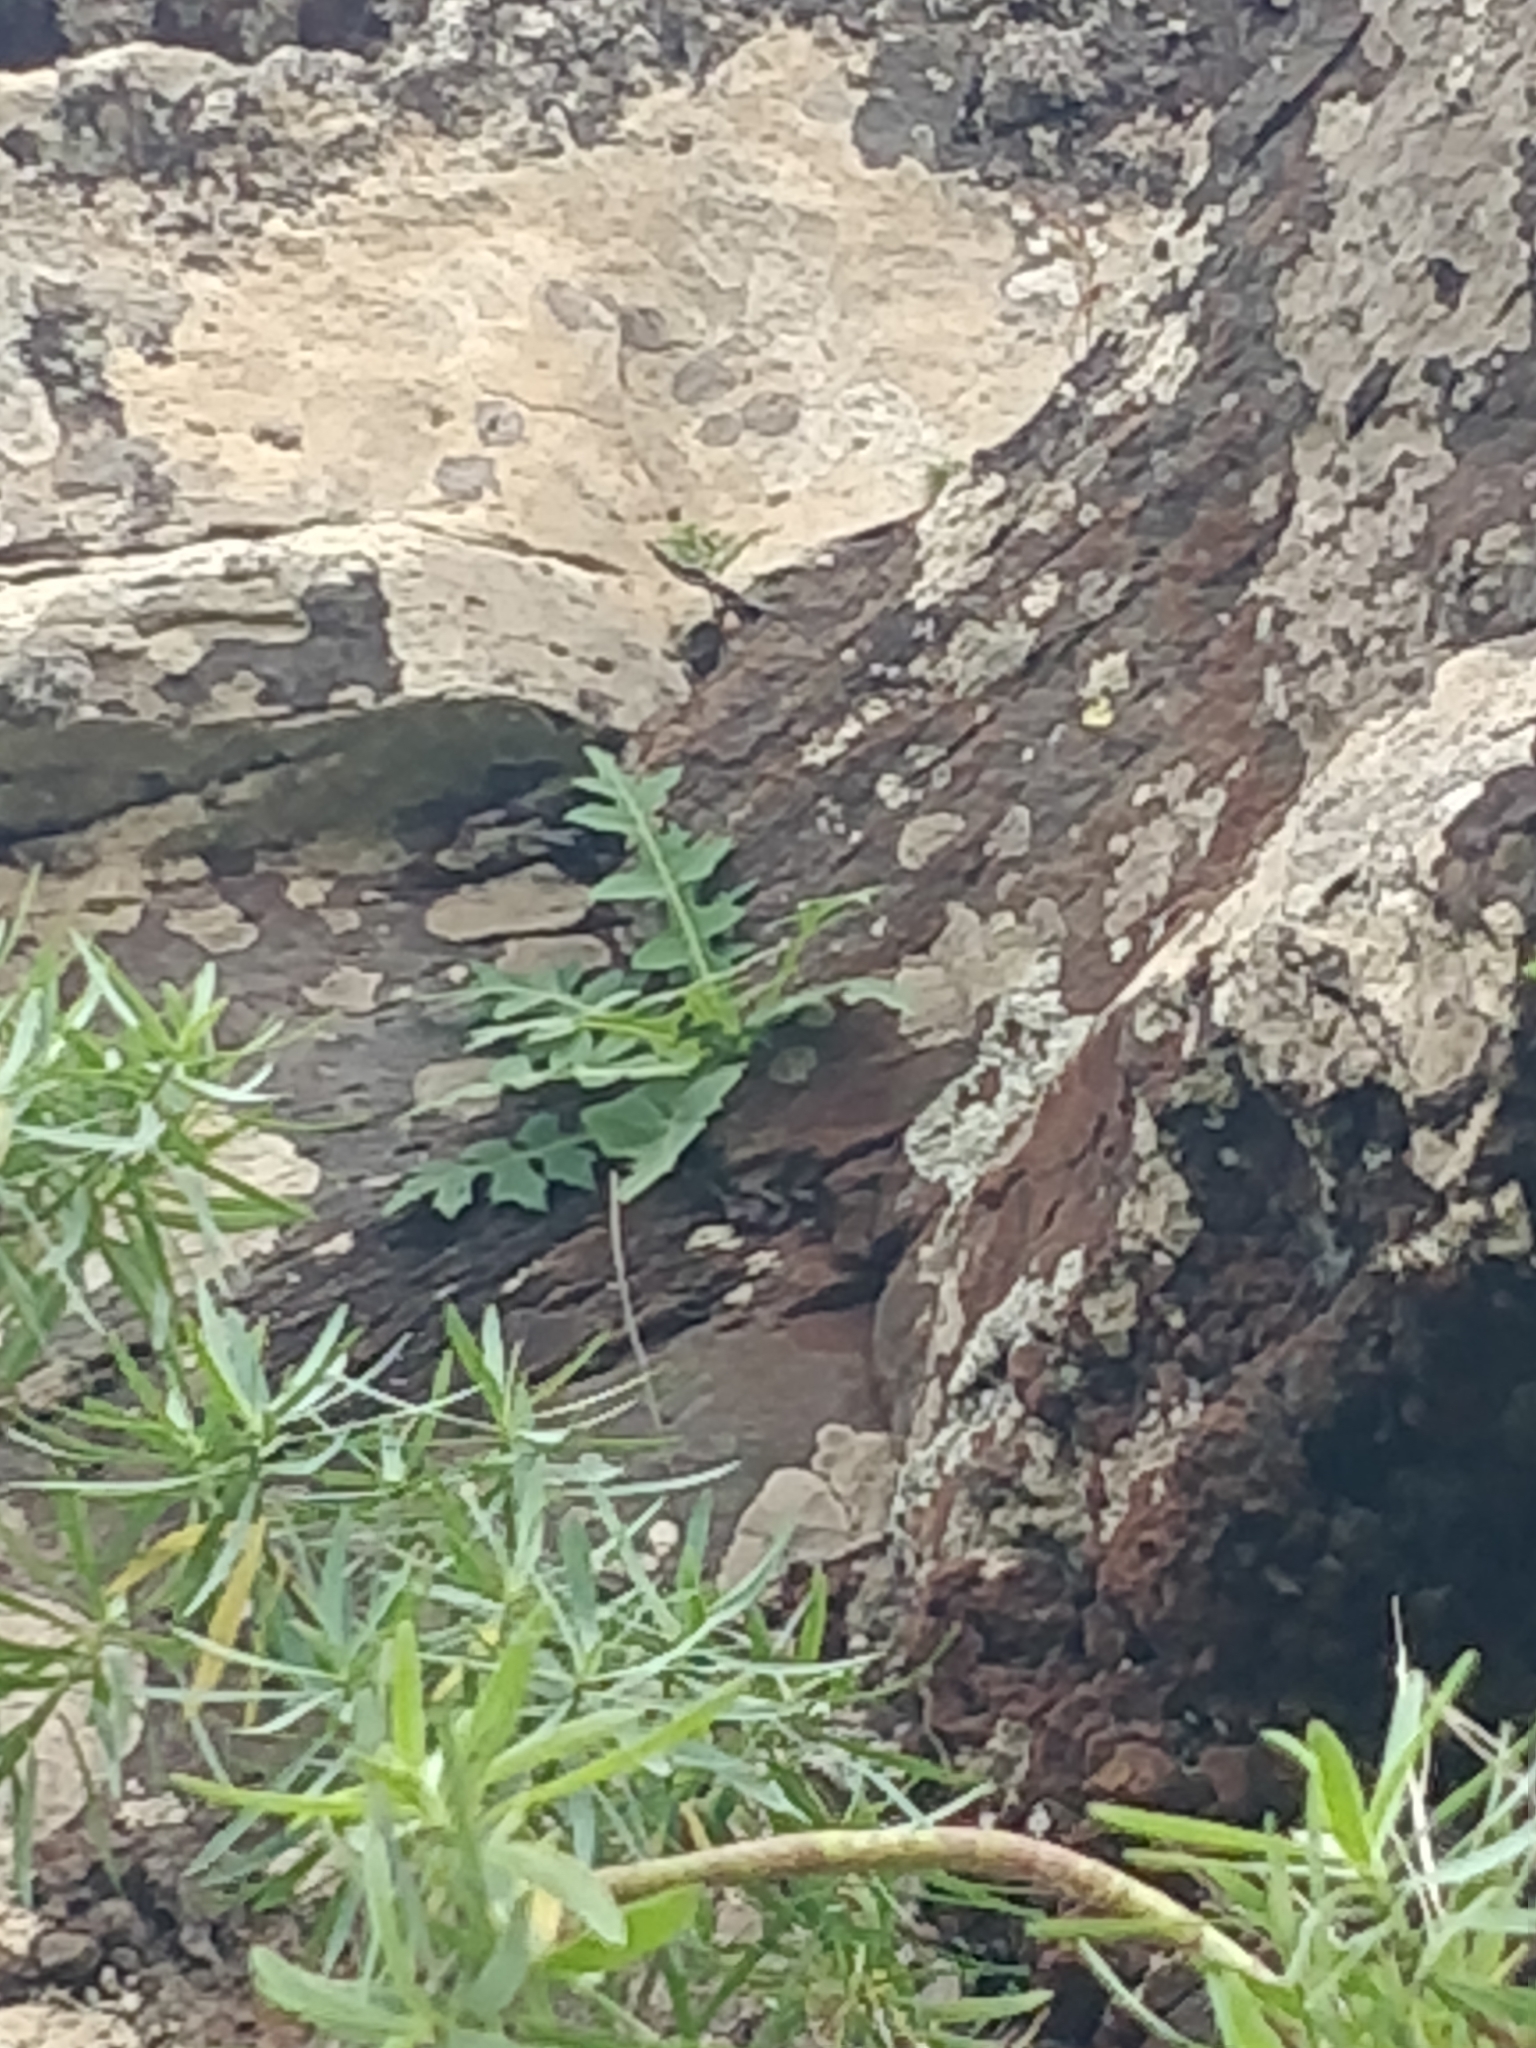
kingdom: Plantae
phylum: Tracheophyta
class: Magnoliopsida
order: Asterales
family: Asteraceae
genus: Sonchus
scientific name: Sonchus ustulatus
